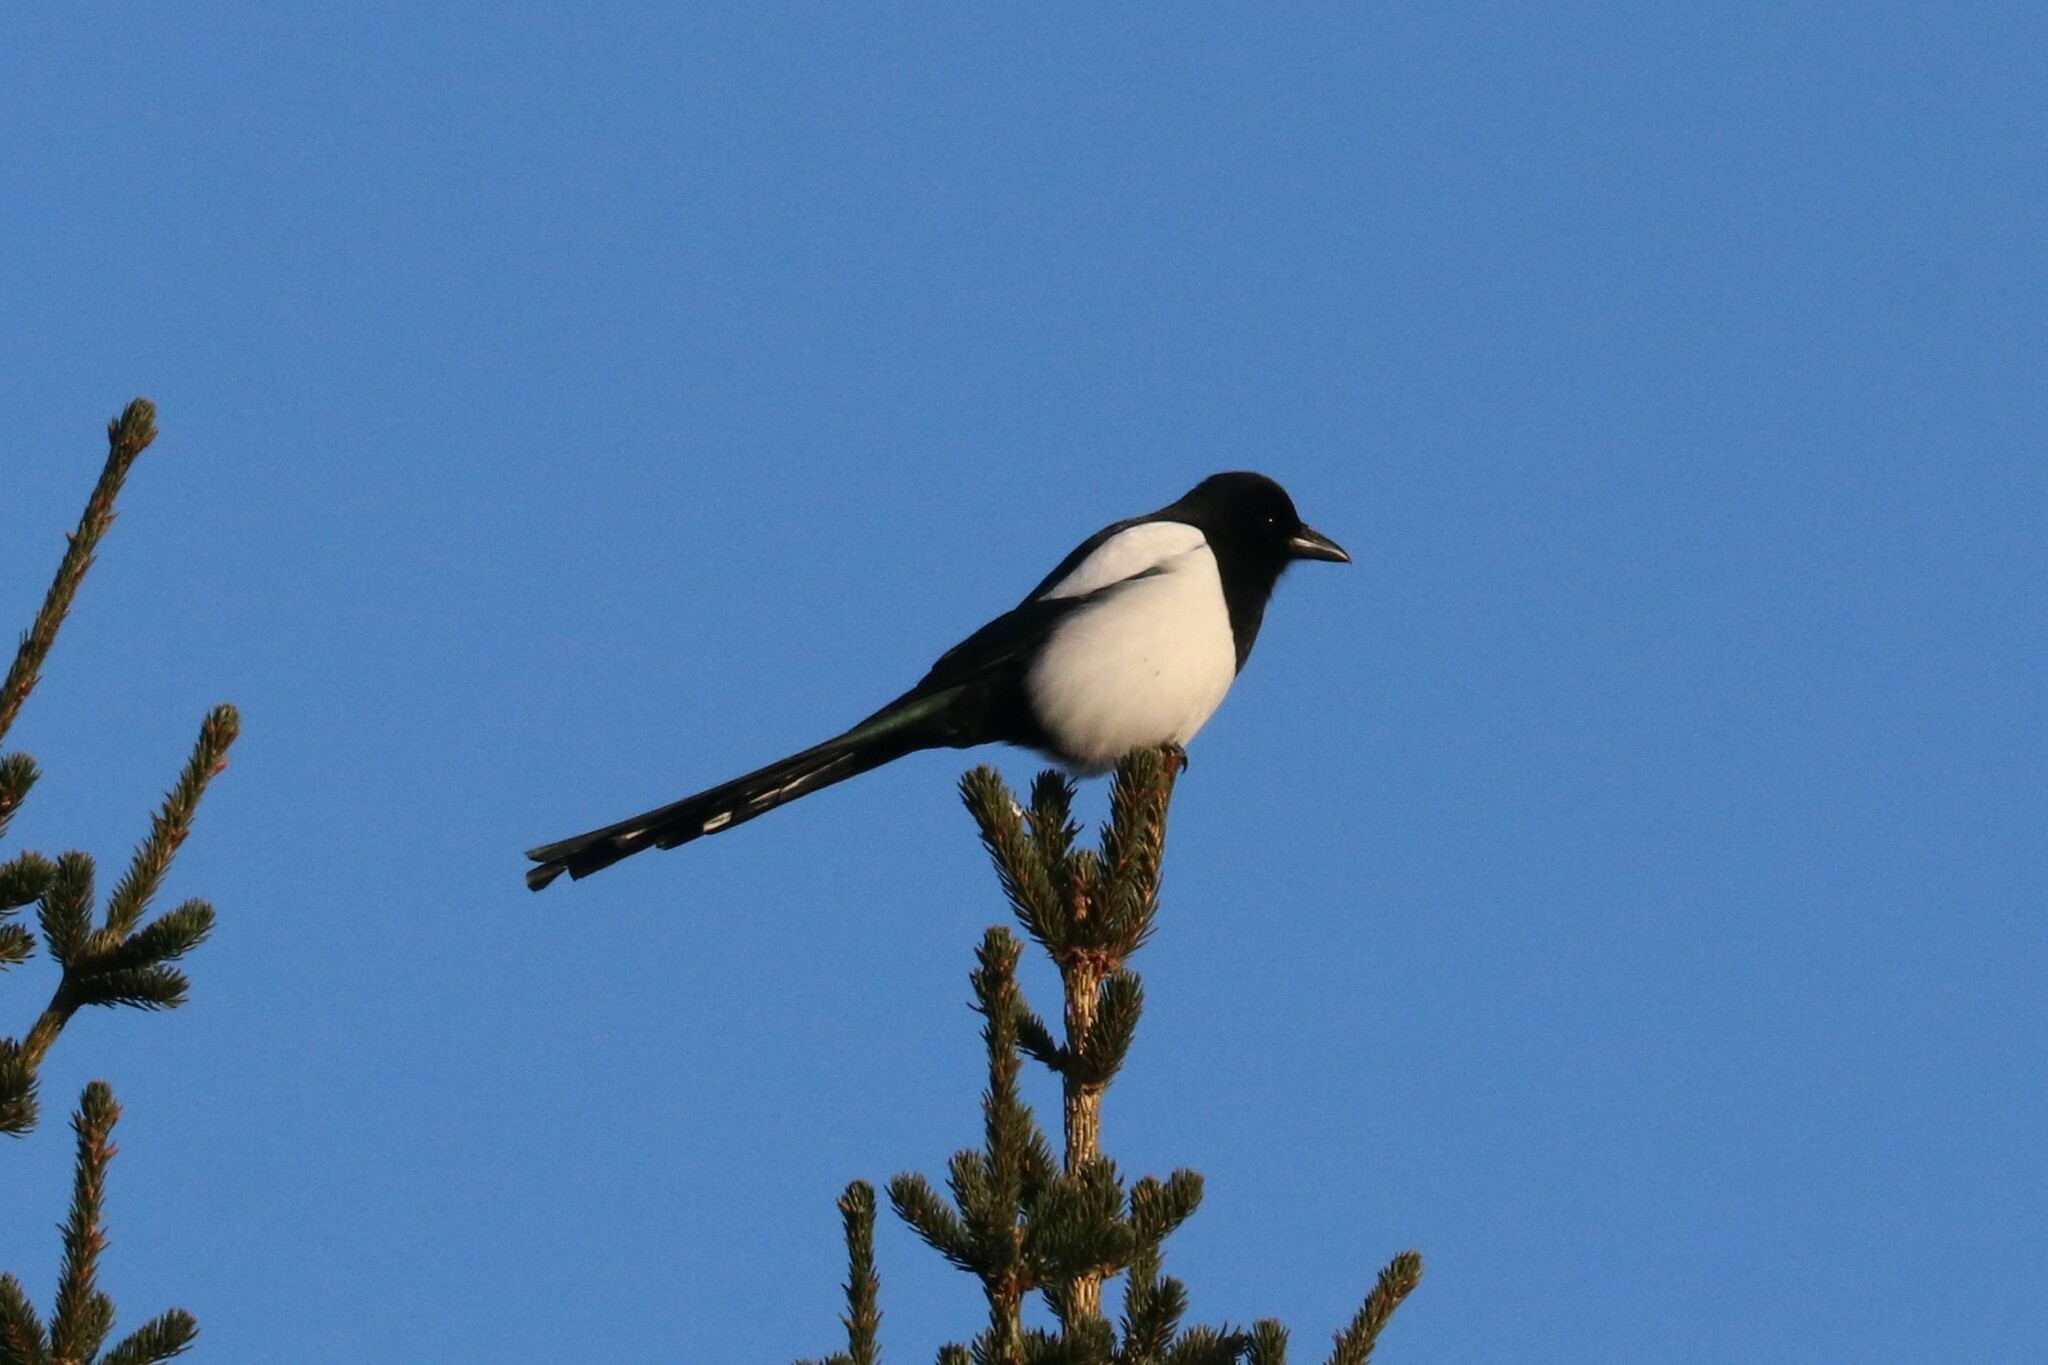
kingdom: Animalia
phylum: Chordata
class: Aves
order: Passeriformes
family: Corvidae
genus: Pica
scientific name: Pica pica
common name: Eurasian magpie
